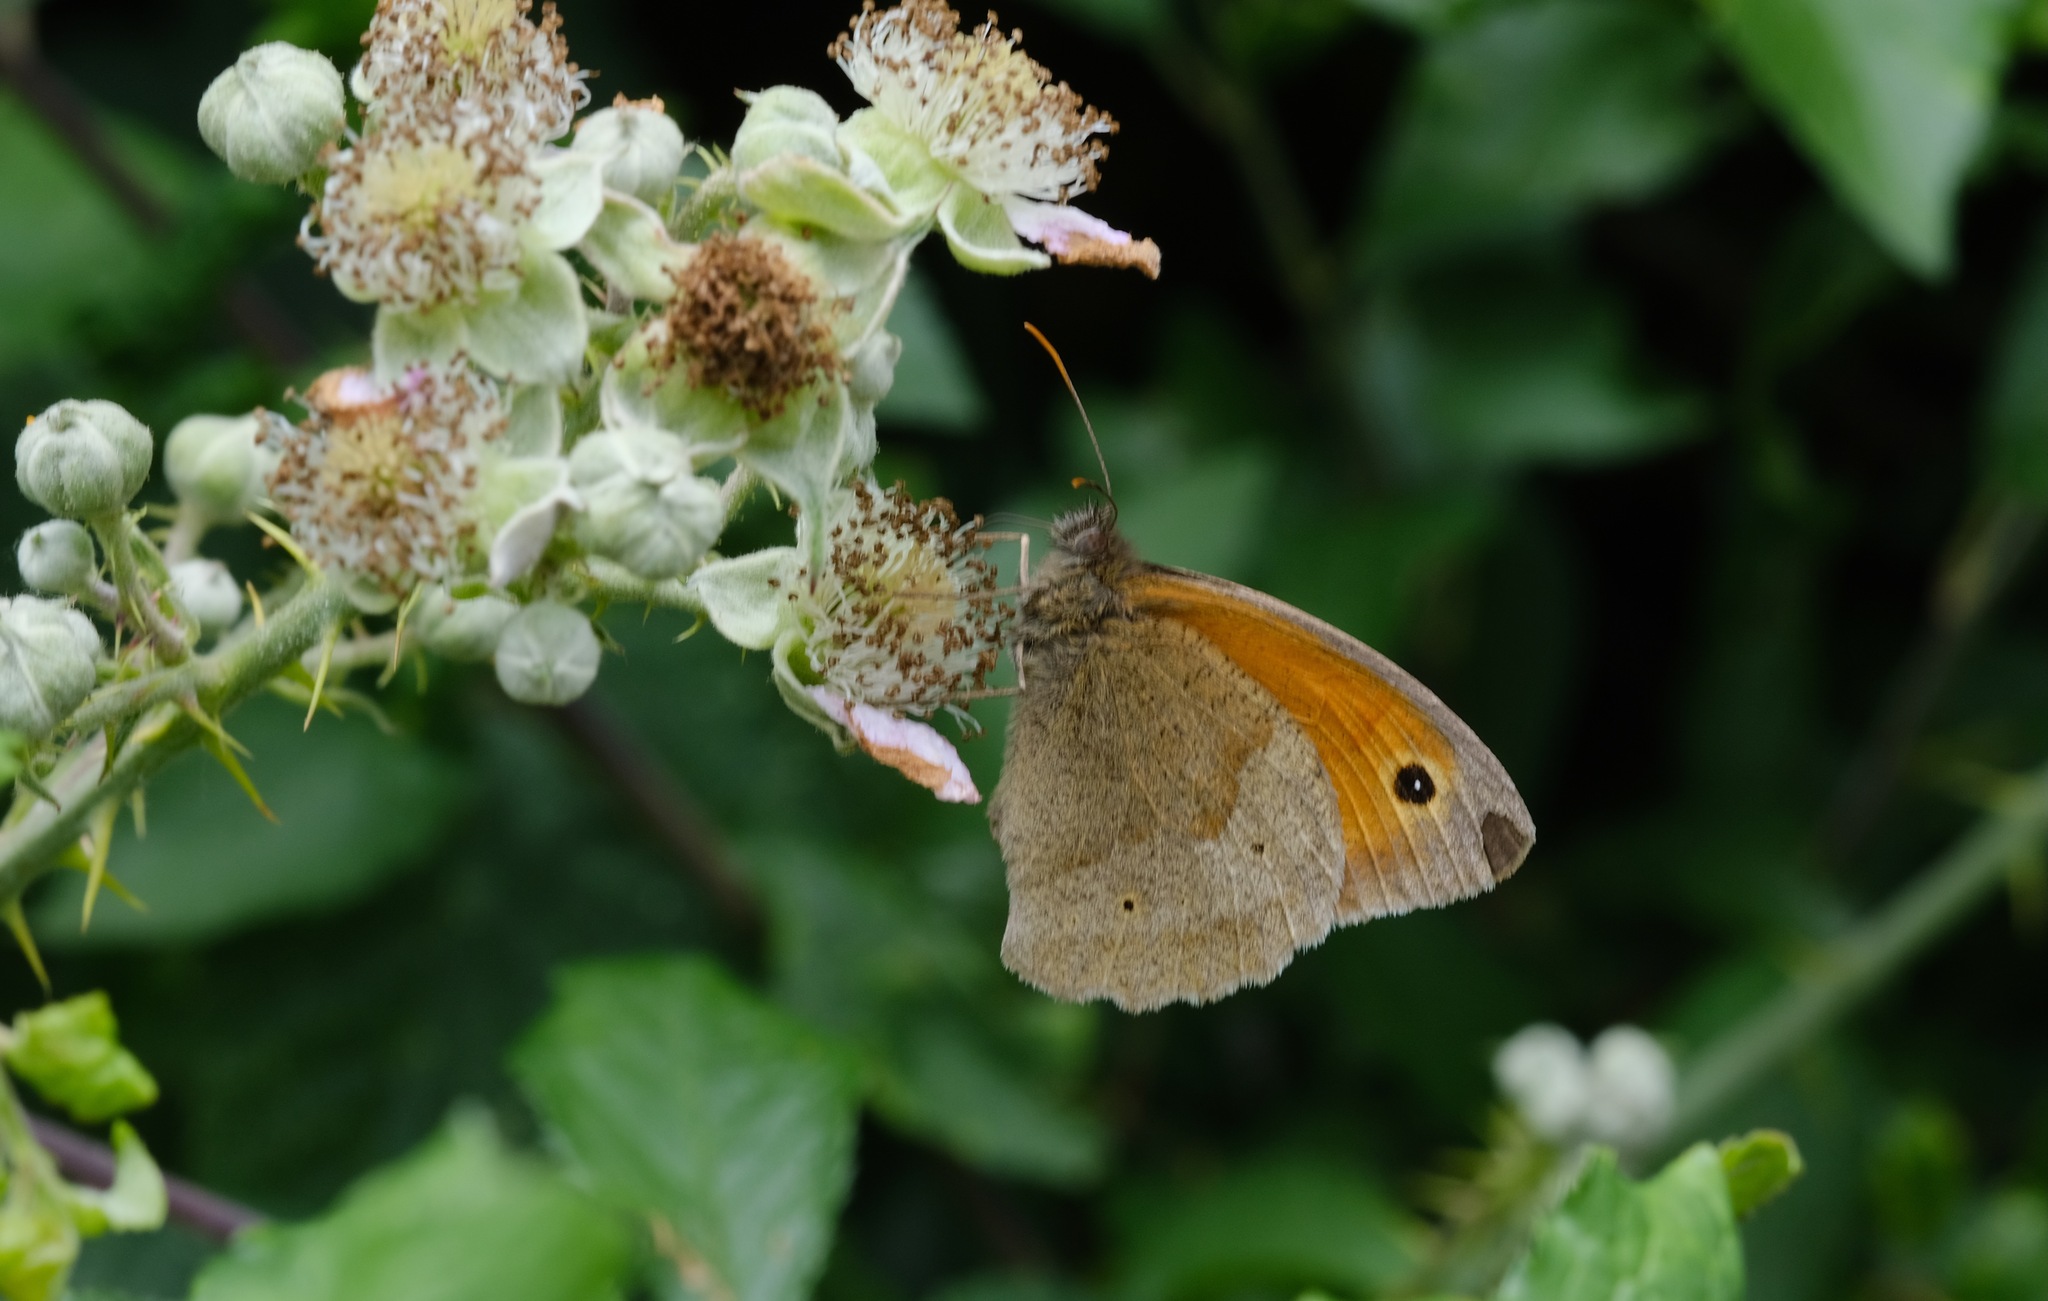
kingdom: Animalia
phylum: Arthropoda
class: Insecta
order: Lepidoptera
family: Nymphalidae
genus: Maniola
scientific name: Maniola jurtina
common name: Meadow brown
